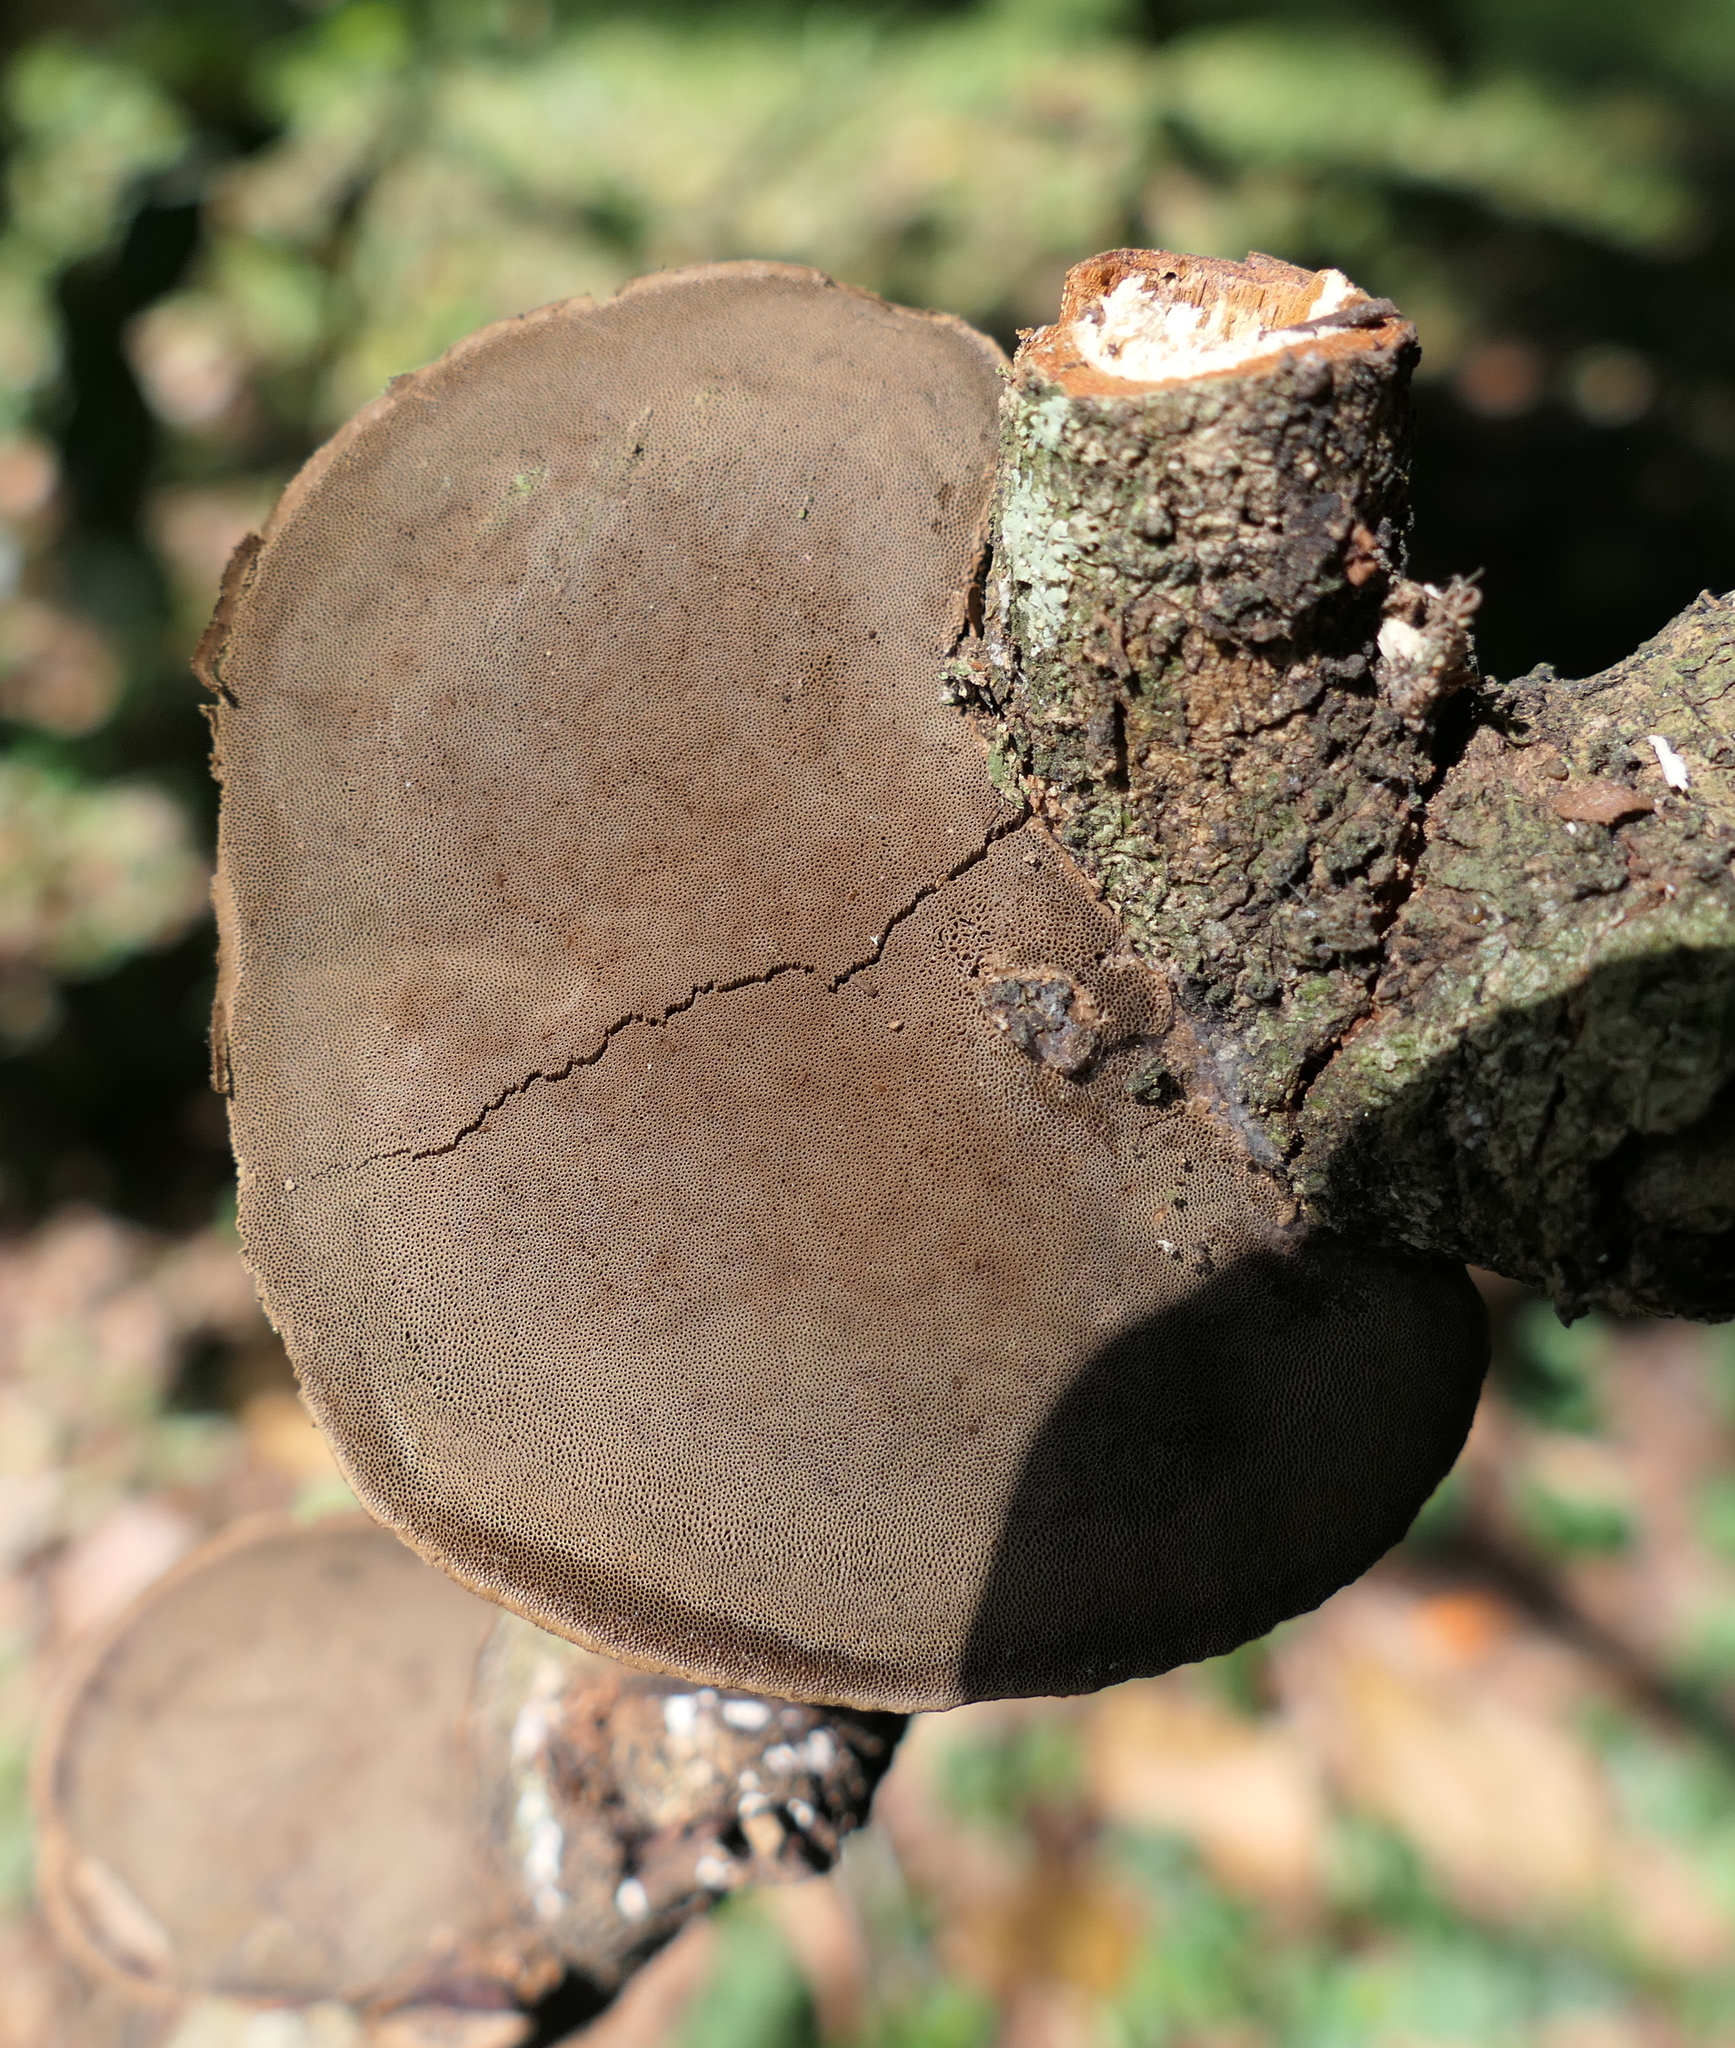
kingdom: Fungi
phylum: Basidiomycota
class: Agaricomycetes
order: Polyporales
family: Cerrenaceae
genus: Cerrena
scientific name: Cerrena hydnoides
